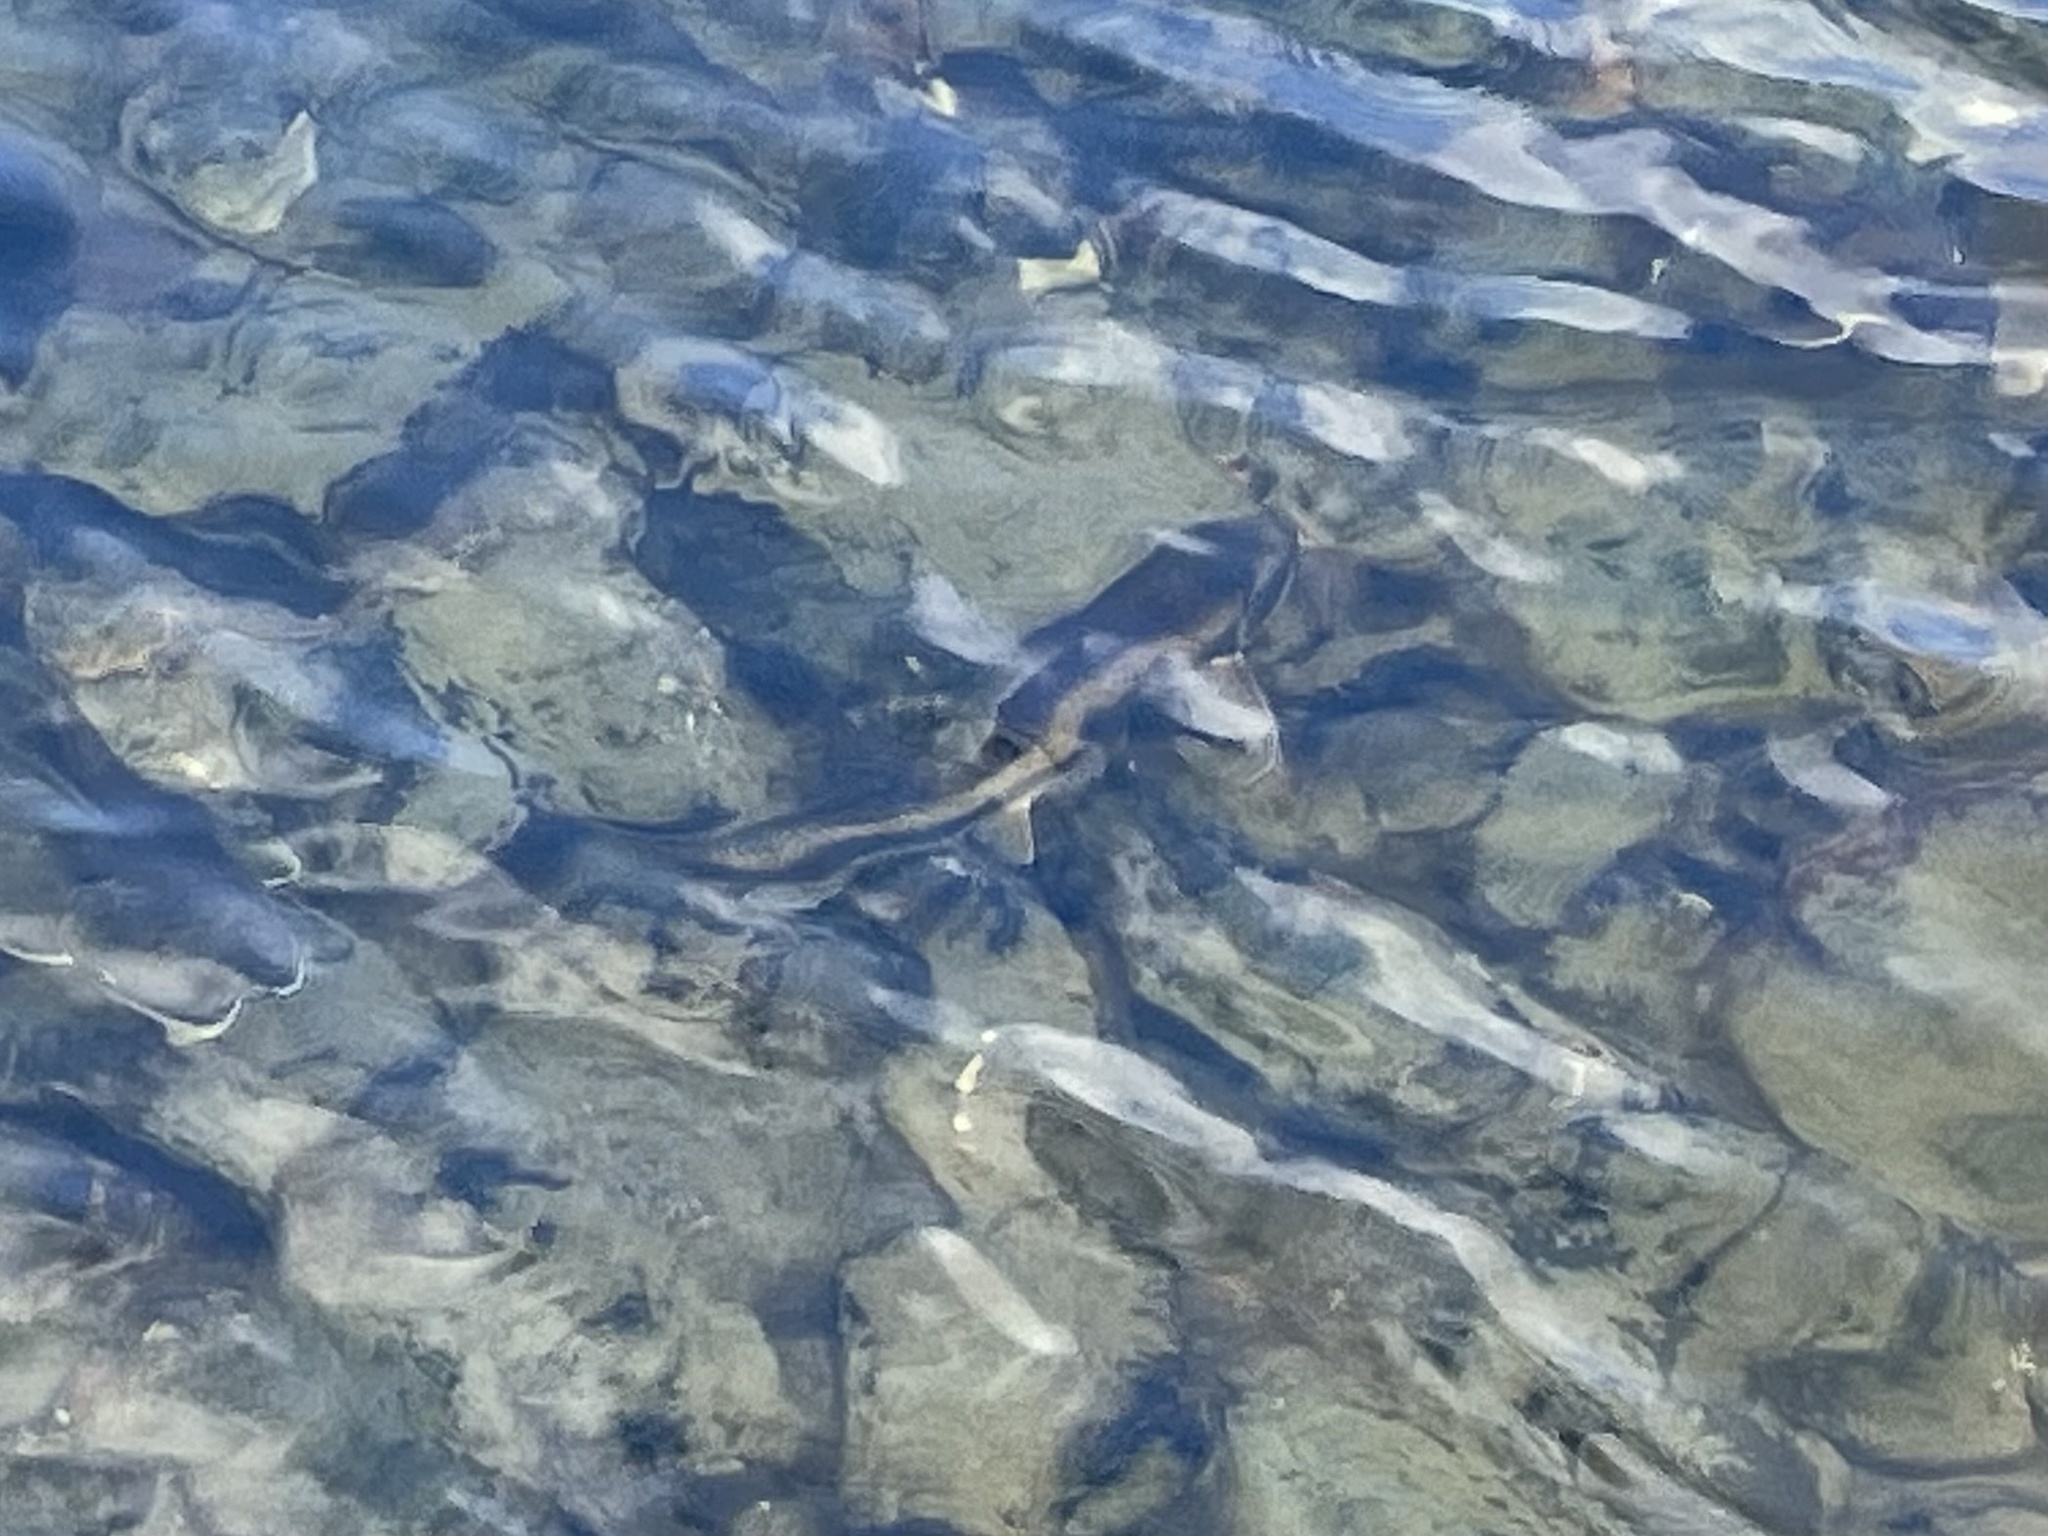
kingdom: Animalia
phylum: Chordata
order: Cypriniformes
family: Catostomidae
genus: Catostomus
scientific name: Catostomus commersonii
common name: White sucker
